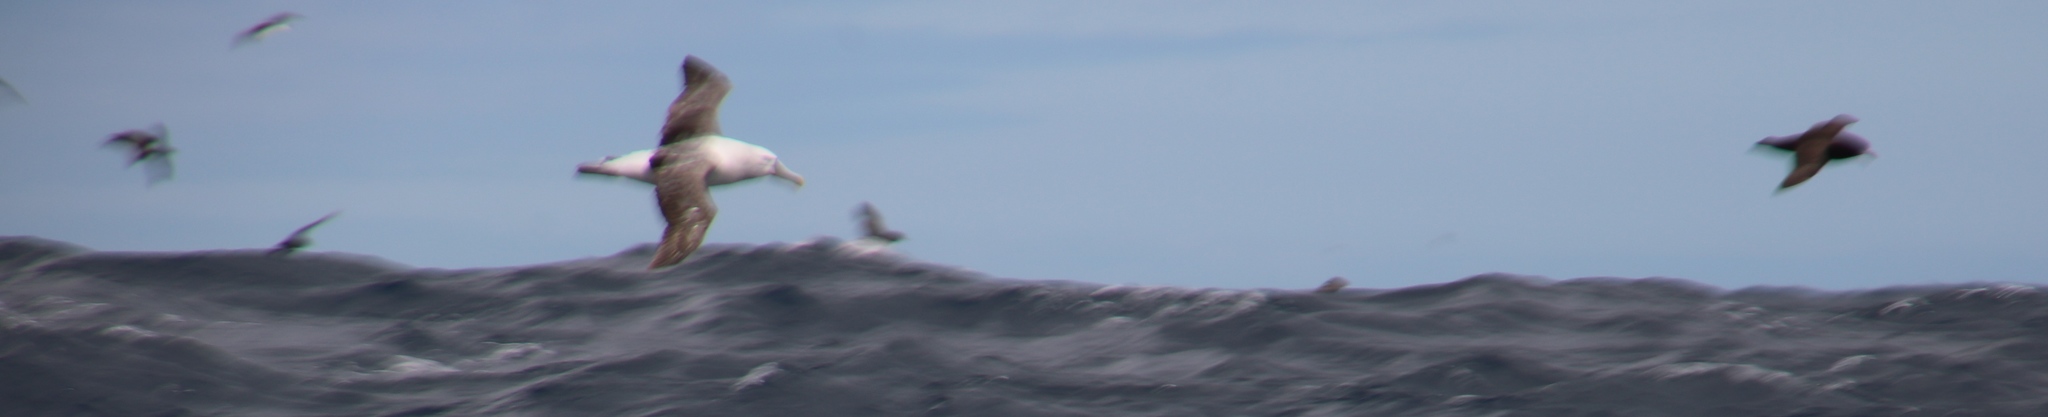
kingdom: Animalia
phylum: Chordata
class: Aves
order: Procellariiformes
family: Diomedeidae
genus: Thalassarche
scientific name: Thalassarche cauta
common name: Shy albatross
